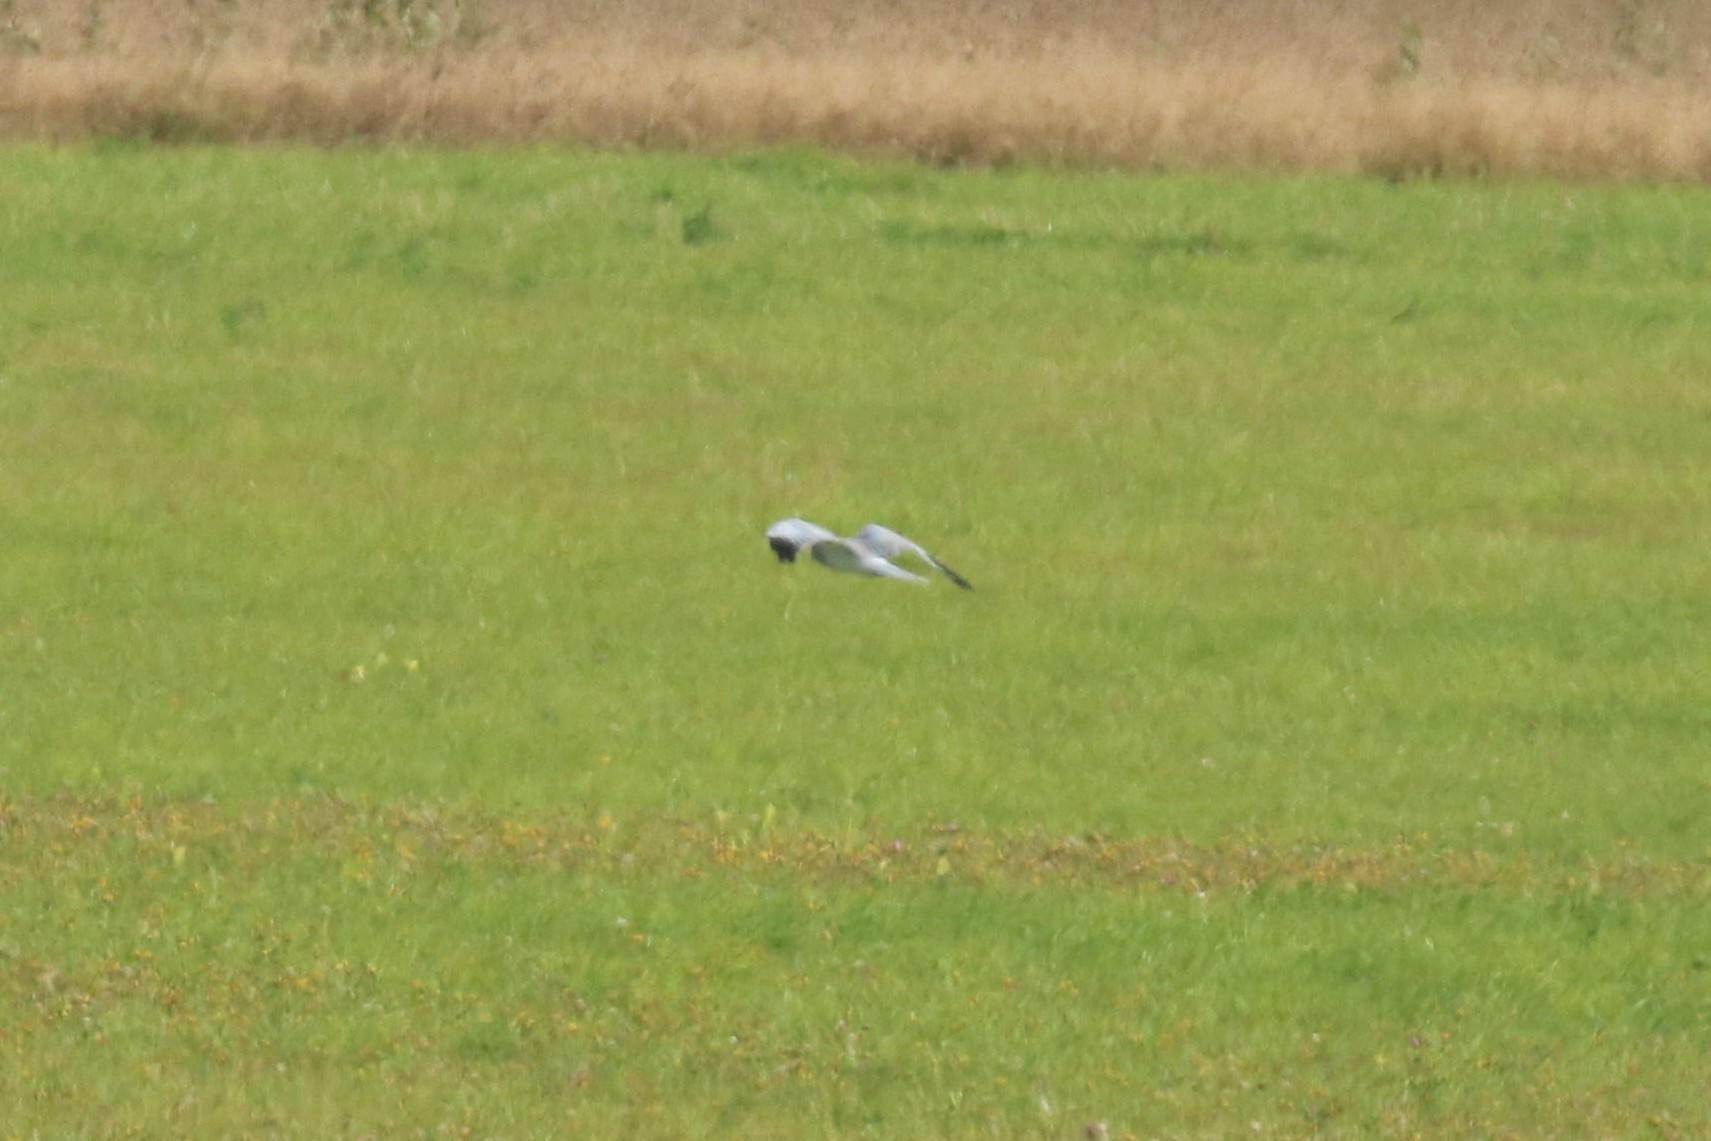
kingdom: Animalia
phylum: Chordata
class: Aves
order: Accipitriformes
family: Accipitridae
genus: Circus
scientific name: Circus cyaneus
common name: Hen harrier
